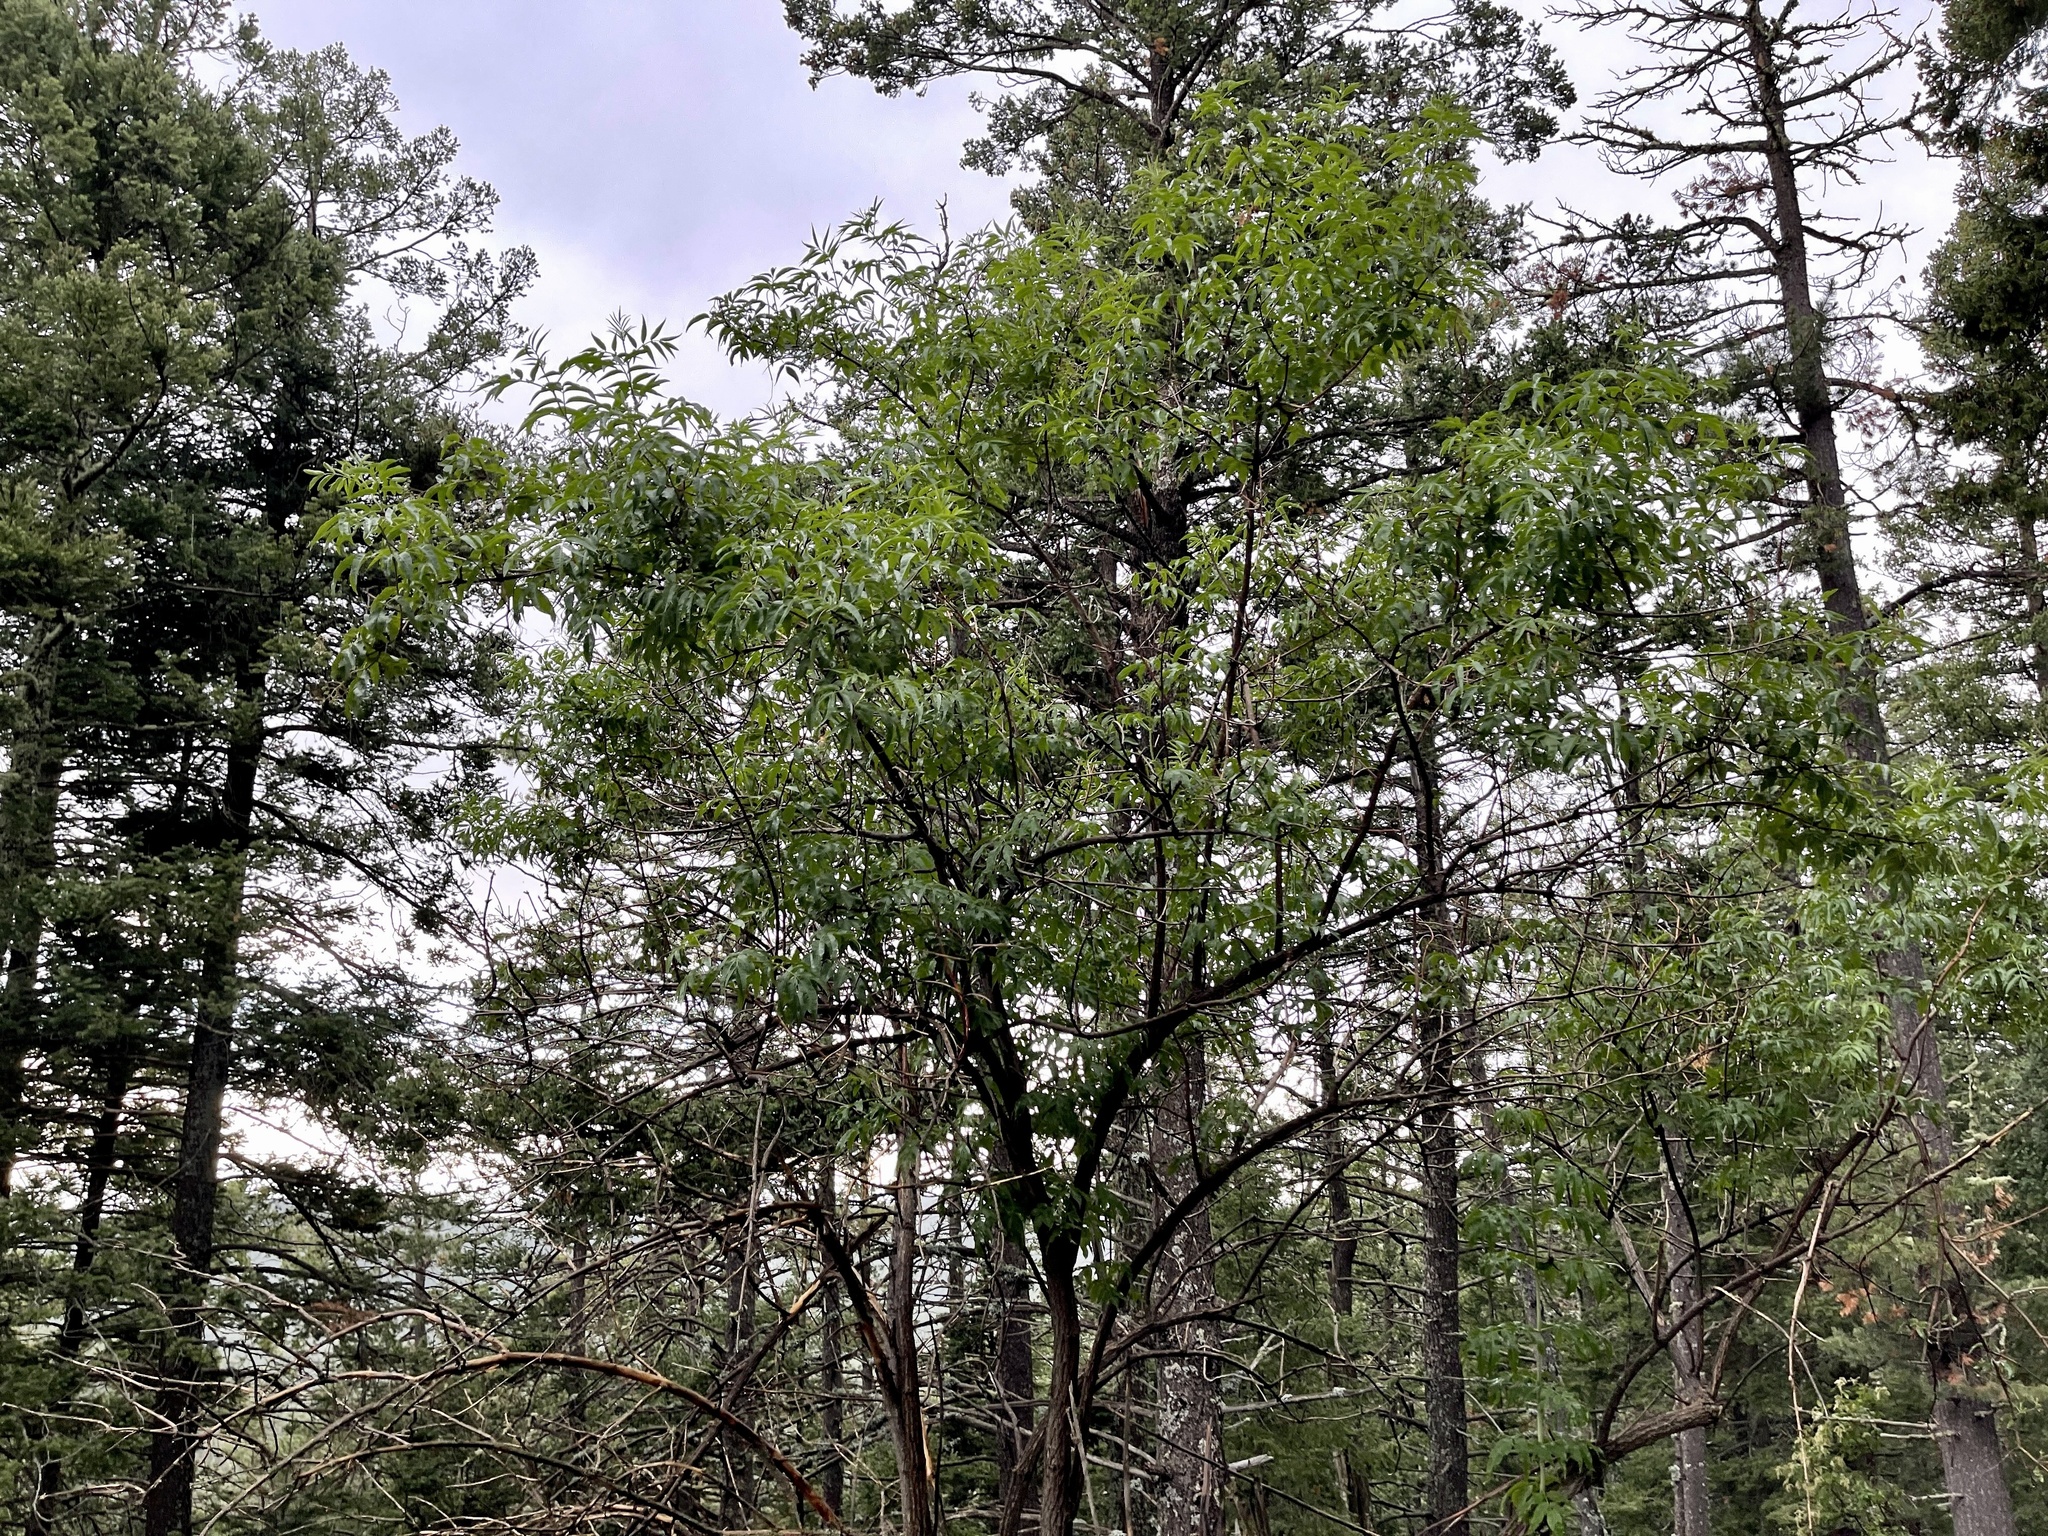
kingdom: Plantae
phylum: Tracheophyta
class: Magnoliopsida
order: Dipsacales
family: Viburnaceae
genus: Sambucus
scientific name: Sambucus cerulea
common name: Blue elder
